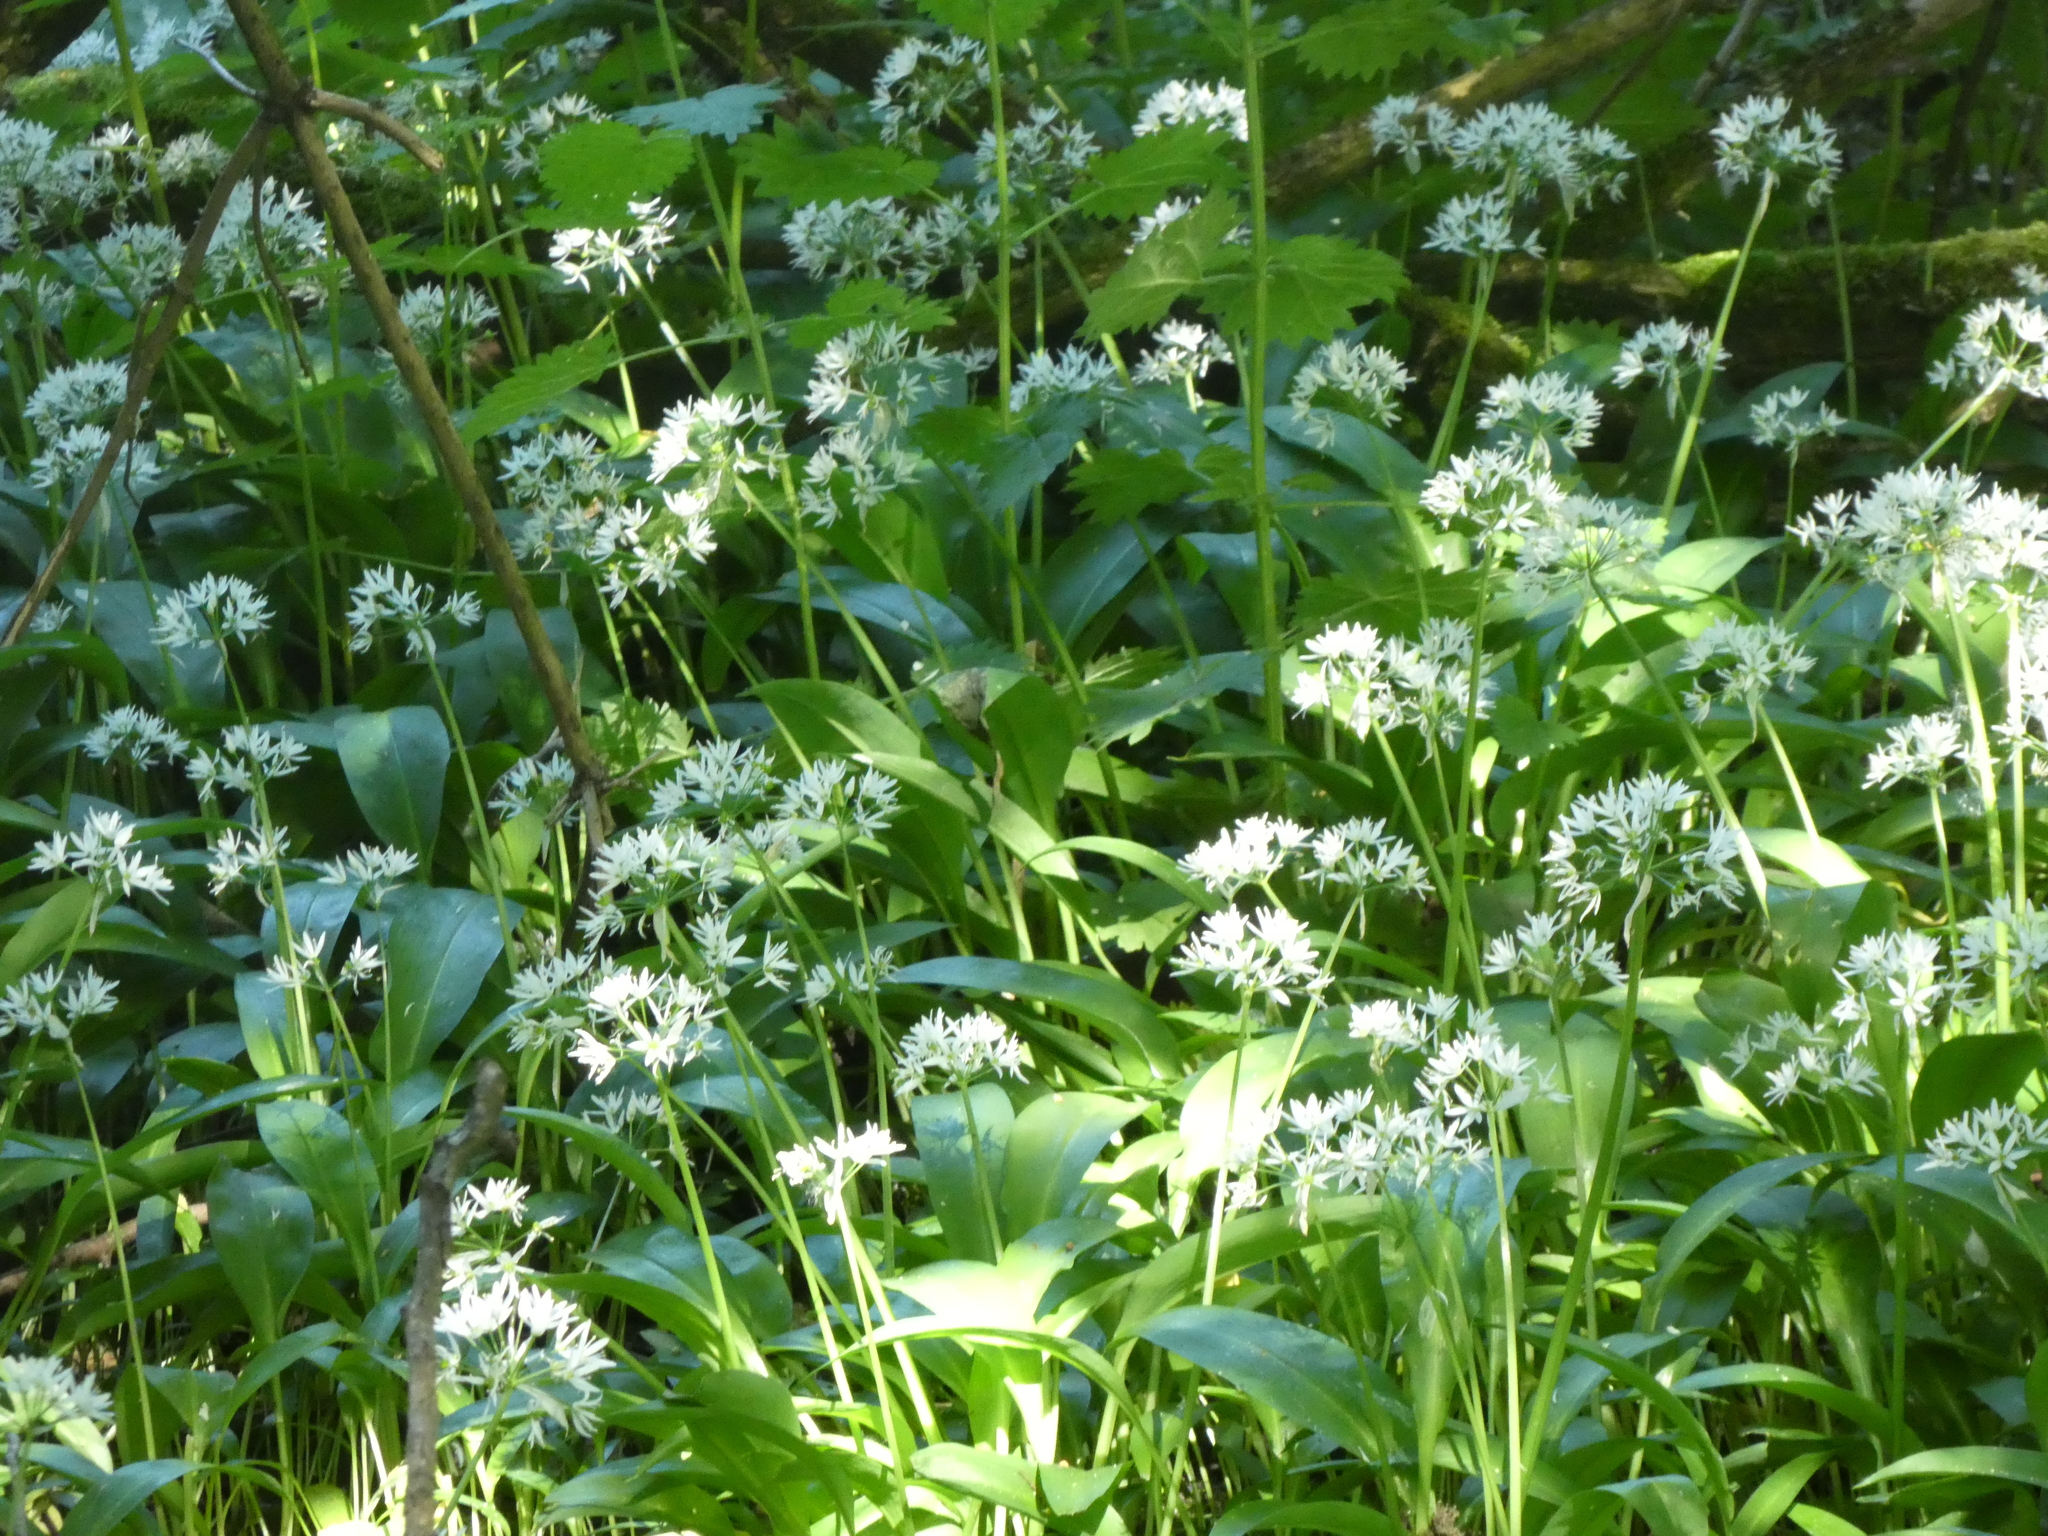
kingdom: Plantae
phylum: Tracheophyta
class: Liliopsida
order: Asparagales
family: Amaryllidaceae
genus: Allium
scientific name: Allium ursinum
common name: Ramsons
